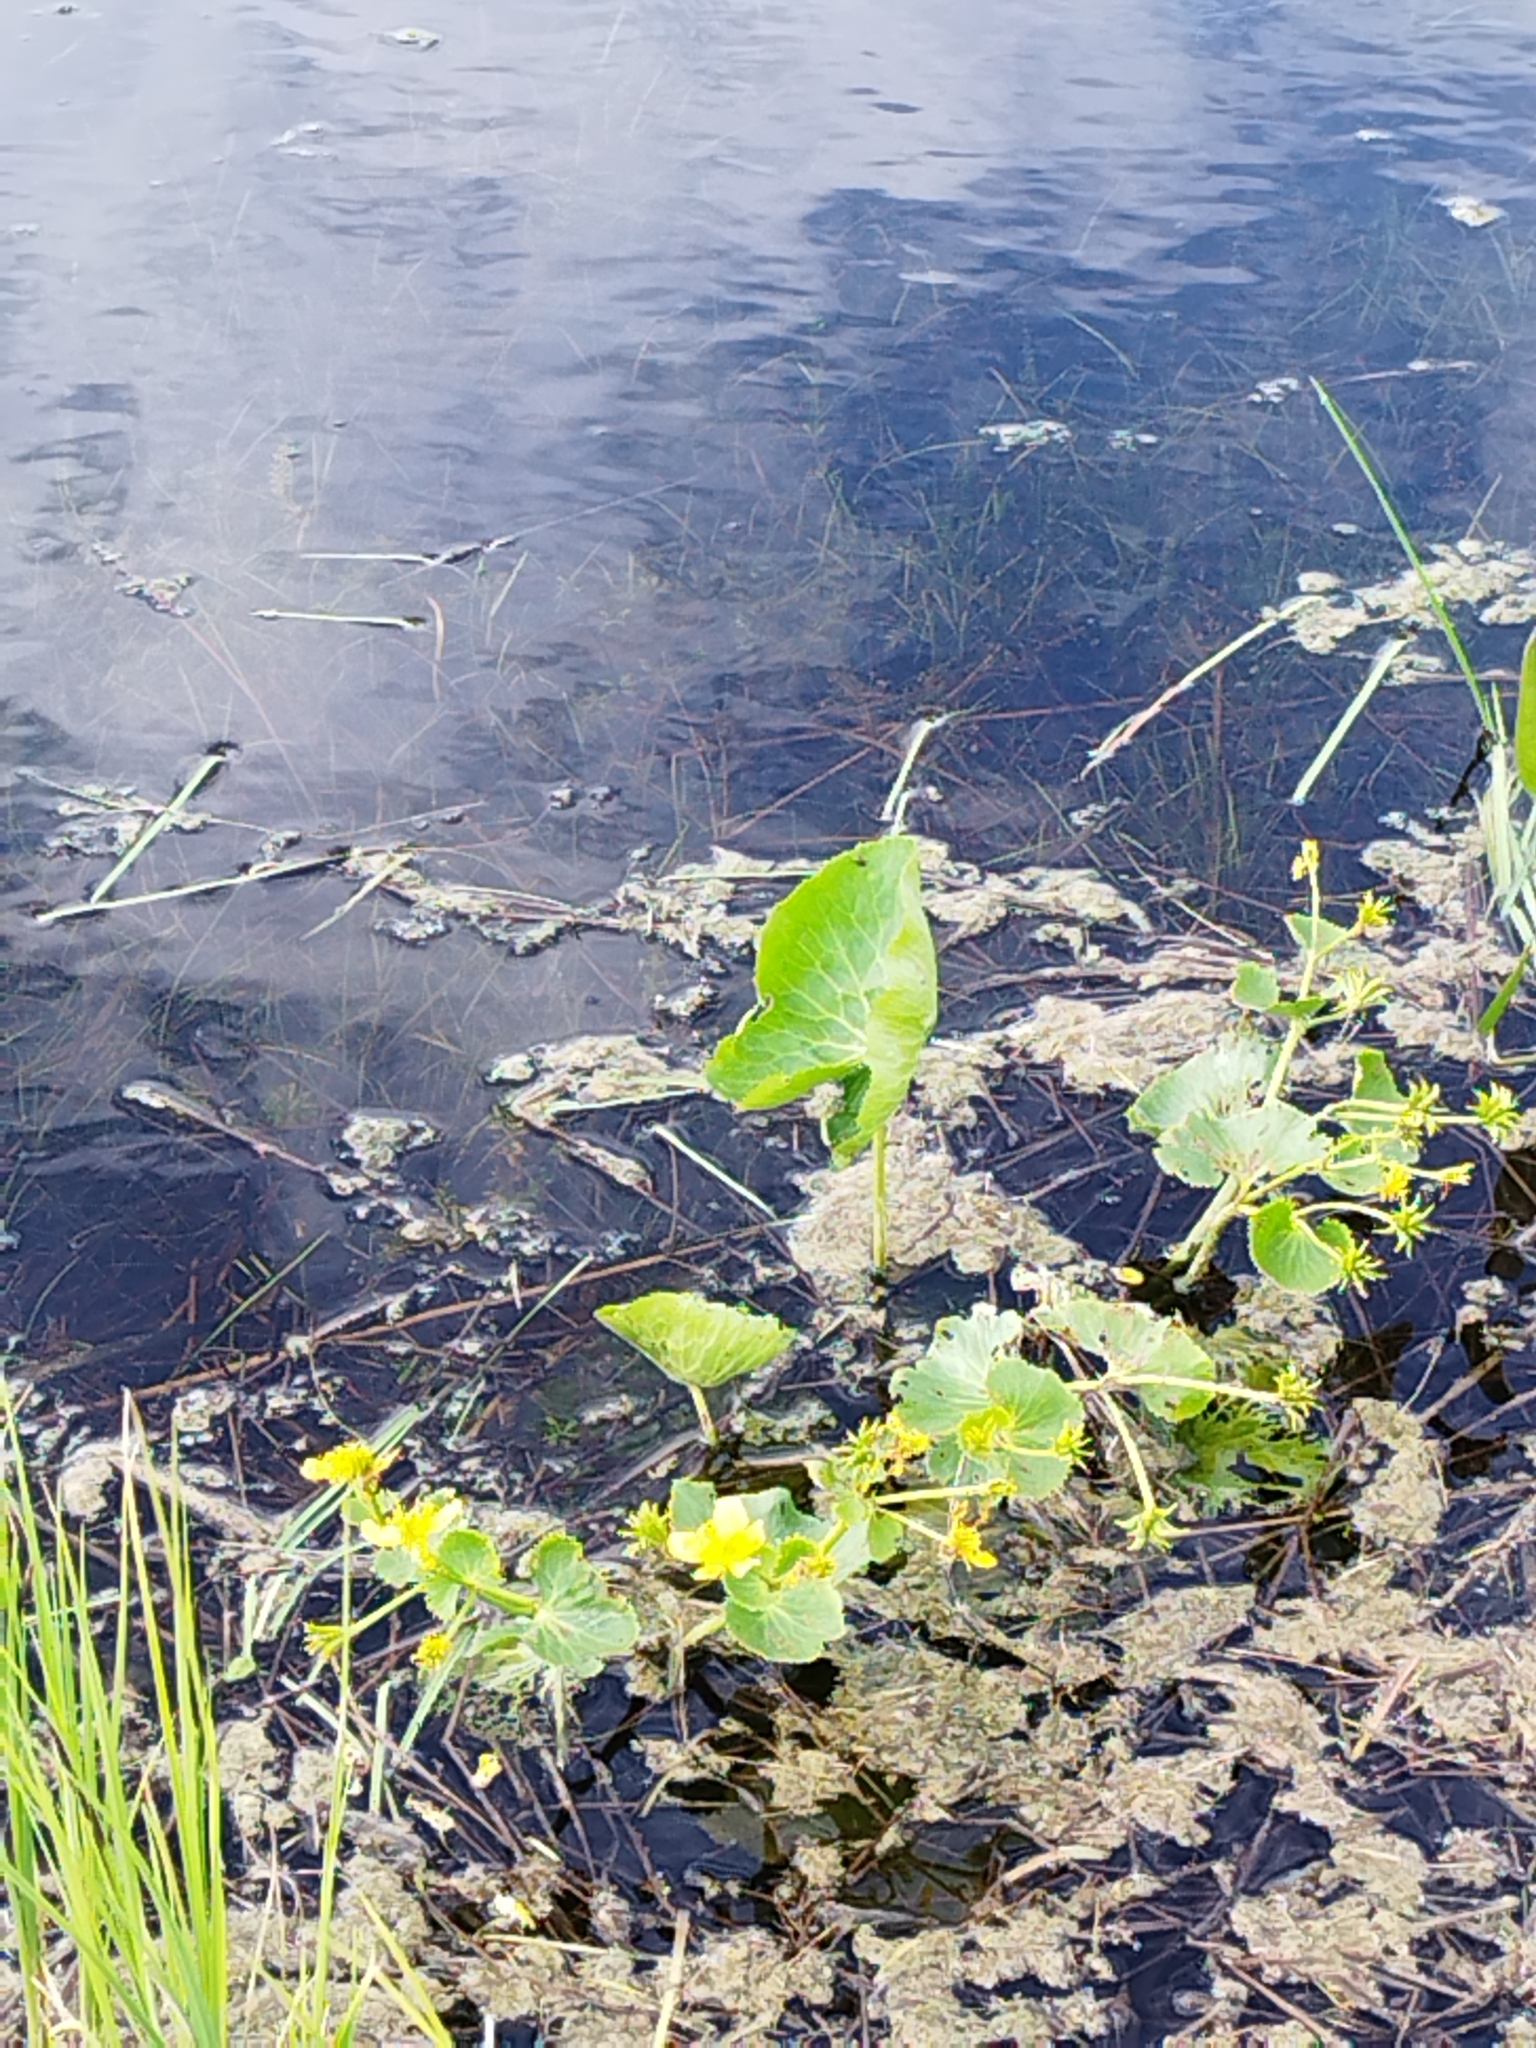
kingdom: Plantae
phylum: Tracheophyta
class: Magnoliopsida
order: Ranunculales
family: Ranunculaceae
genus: Caltha
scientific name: Caltha palustris
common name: Marsh marigold
